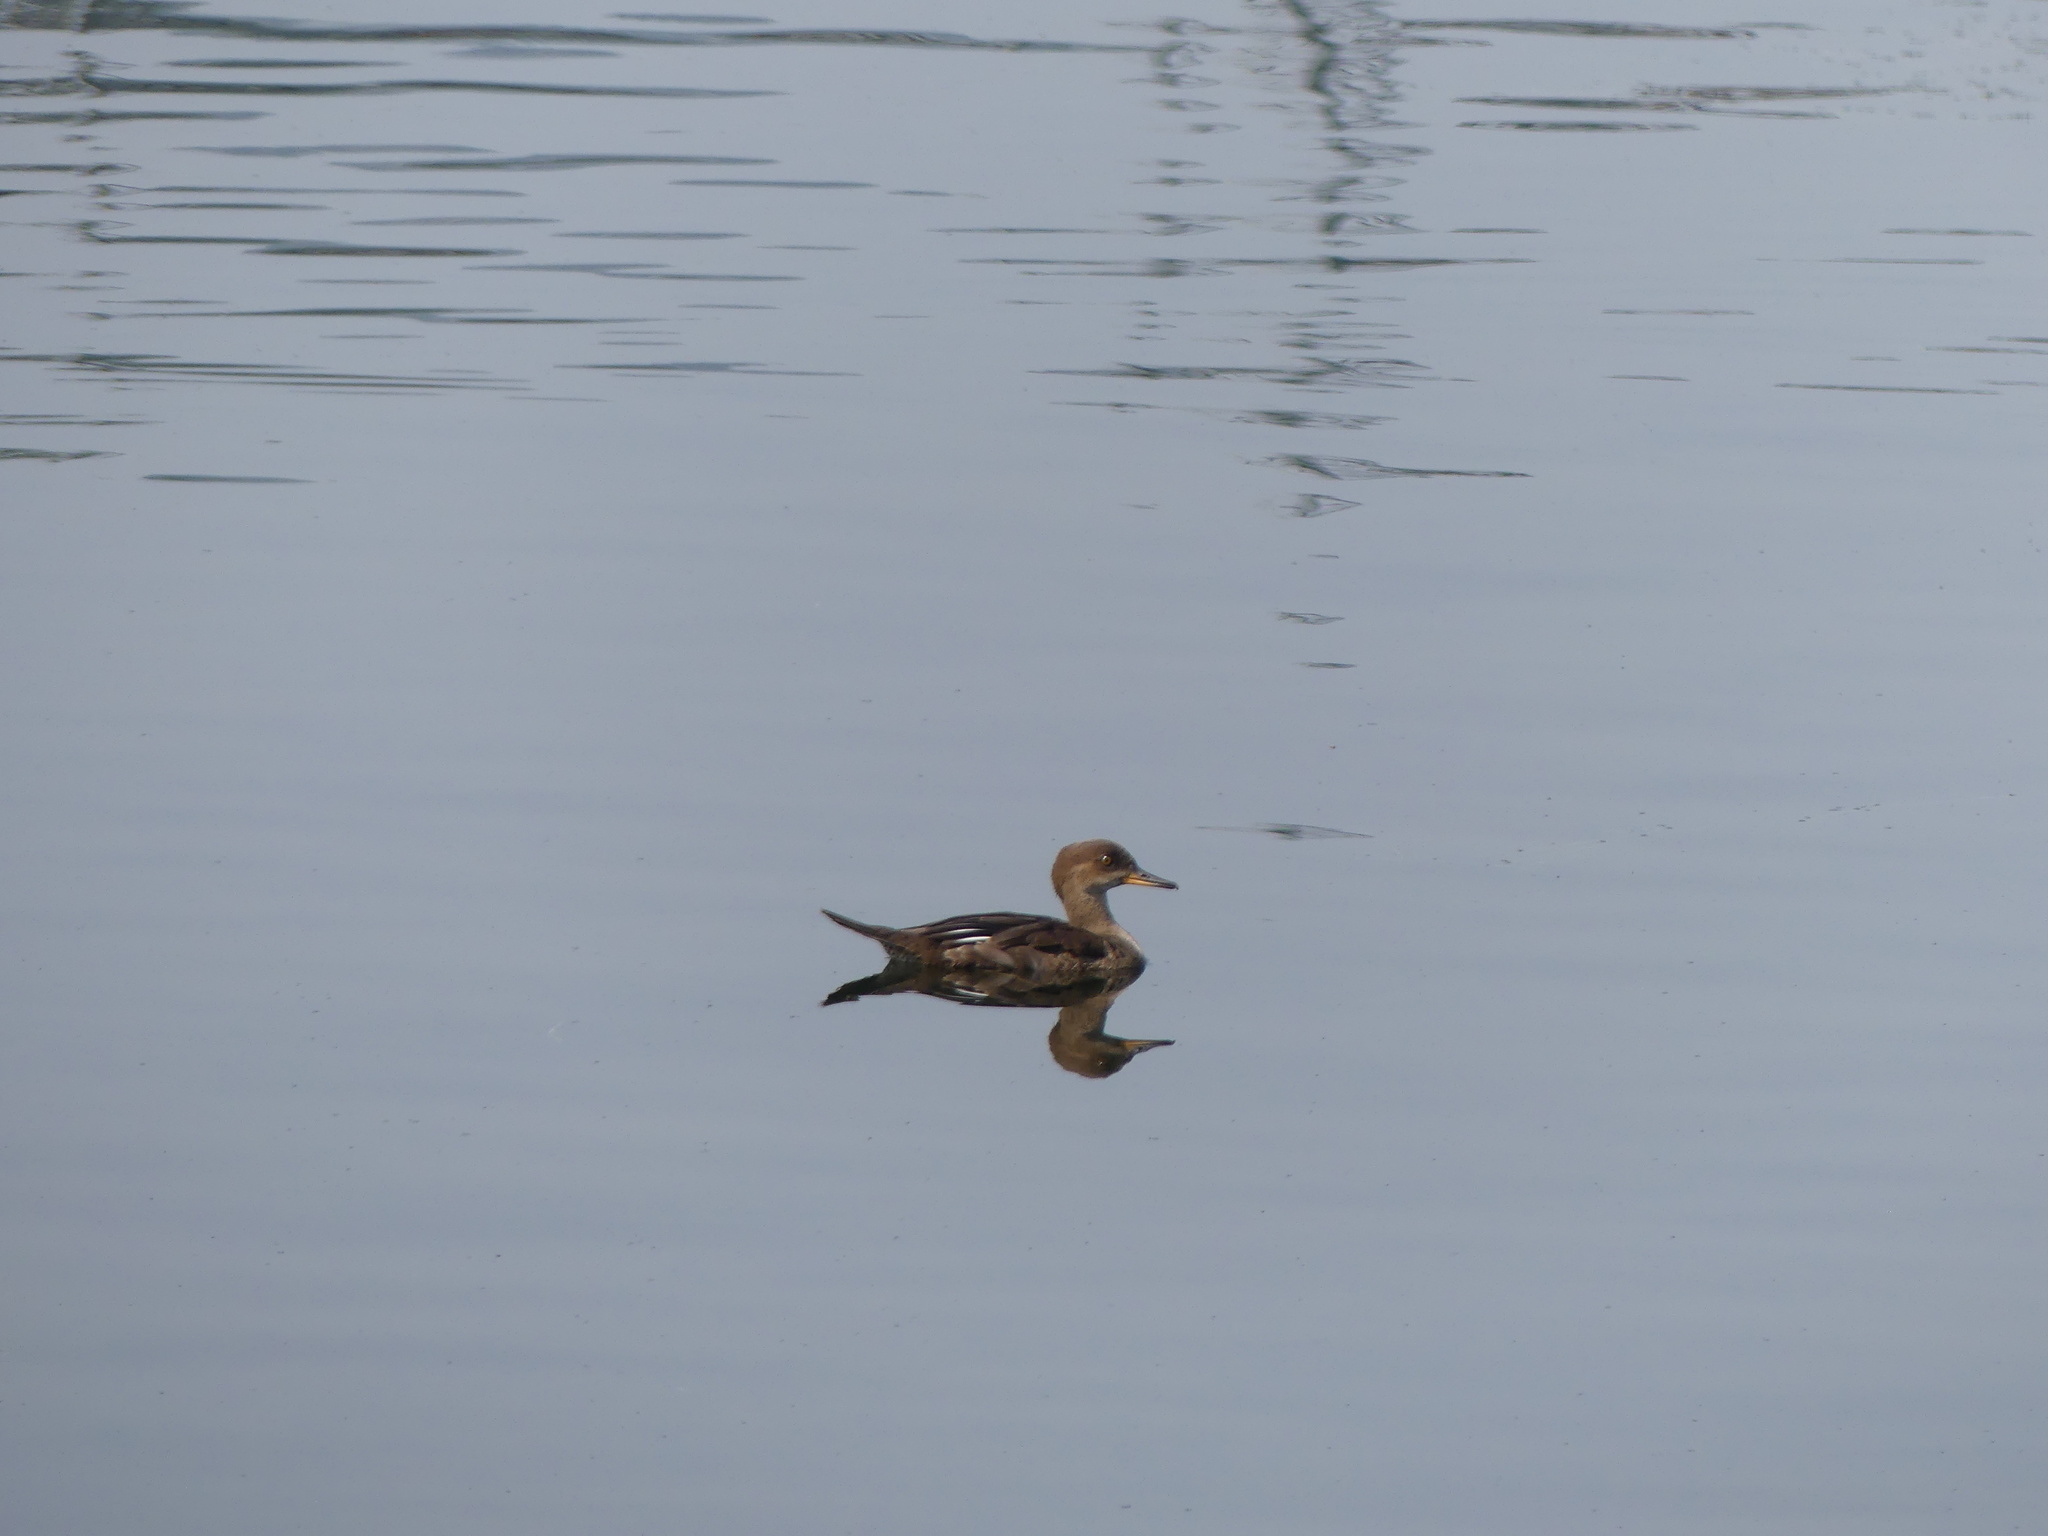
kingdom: Animalia
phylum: Chordata
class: Aves
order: Anseriformes
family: Anatidae
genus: Lophodytes
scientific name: Lophodytes cucullatus
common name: Hooded merganser
